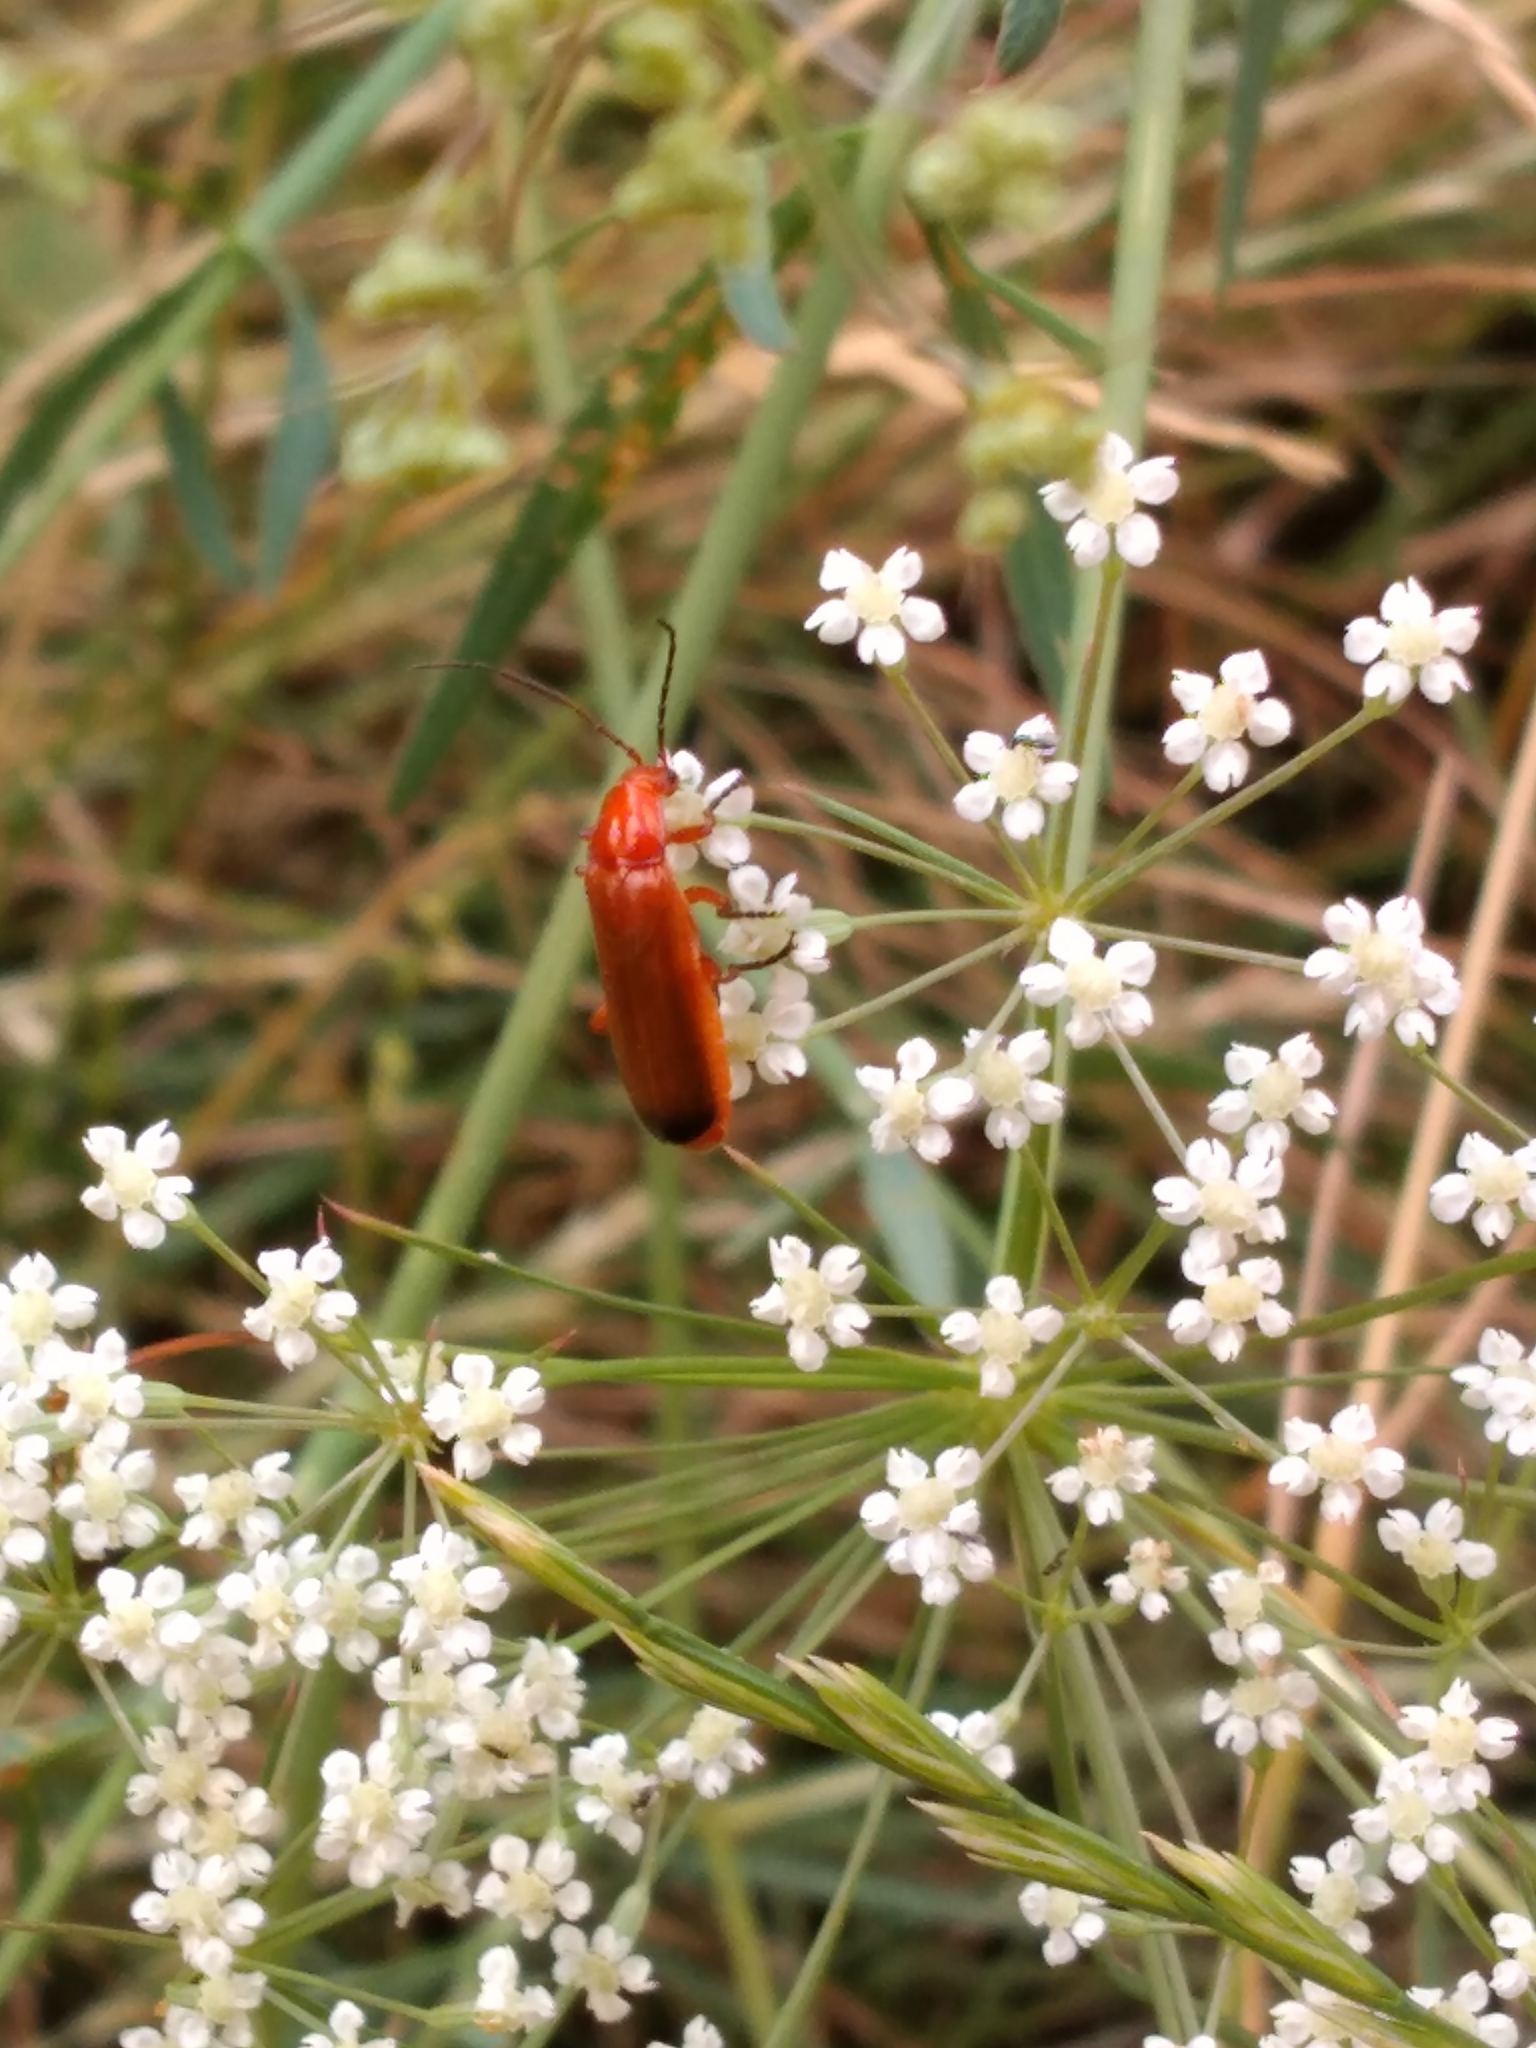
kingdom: Animalia
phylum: Arthropoda
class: Insecta
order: Coleoptera
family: Cantharidae
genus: Rhagonycha
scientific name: Rhagonycha fulva
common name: Common red soldier beetle
